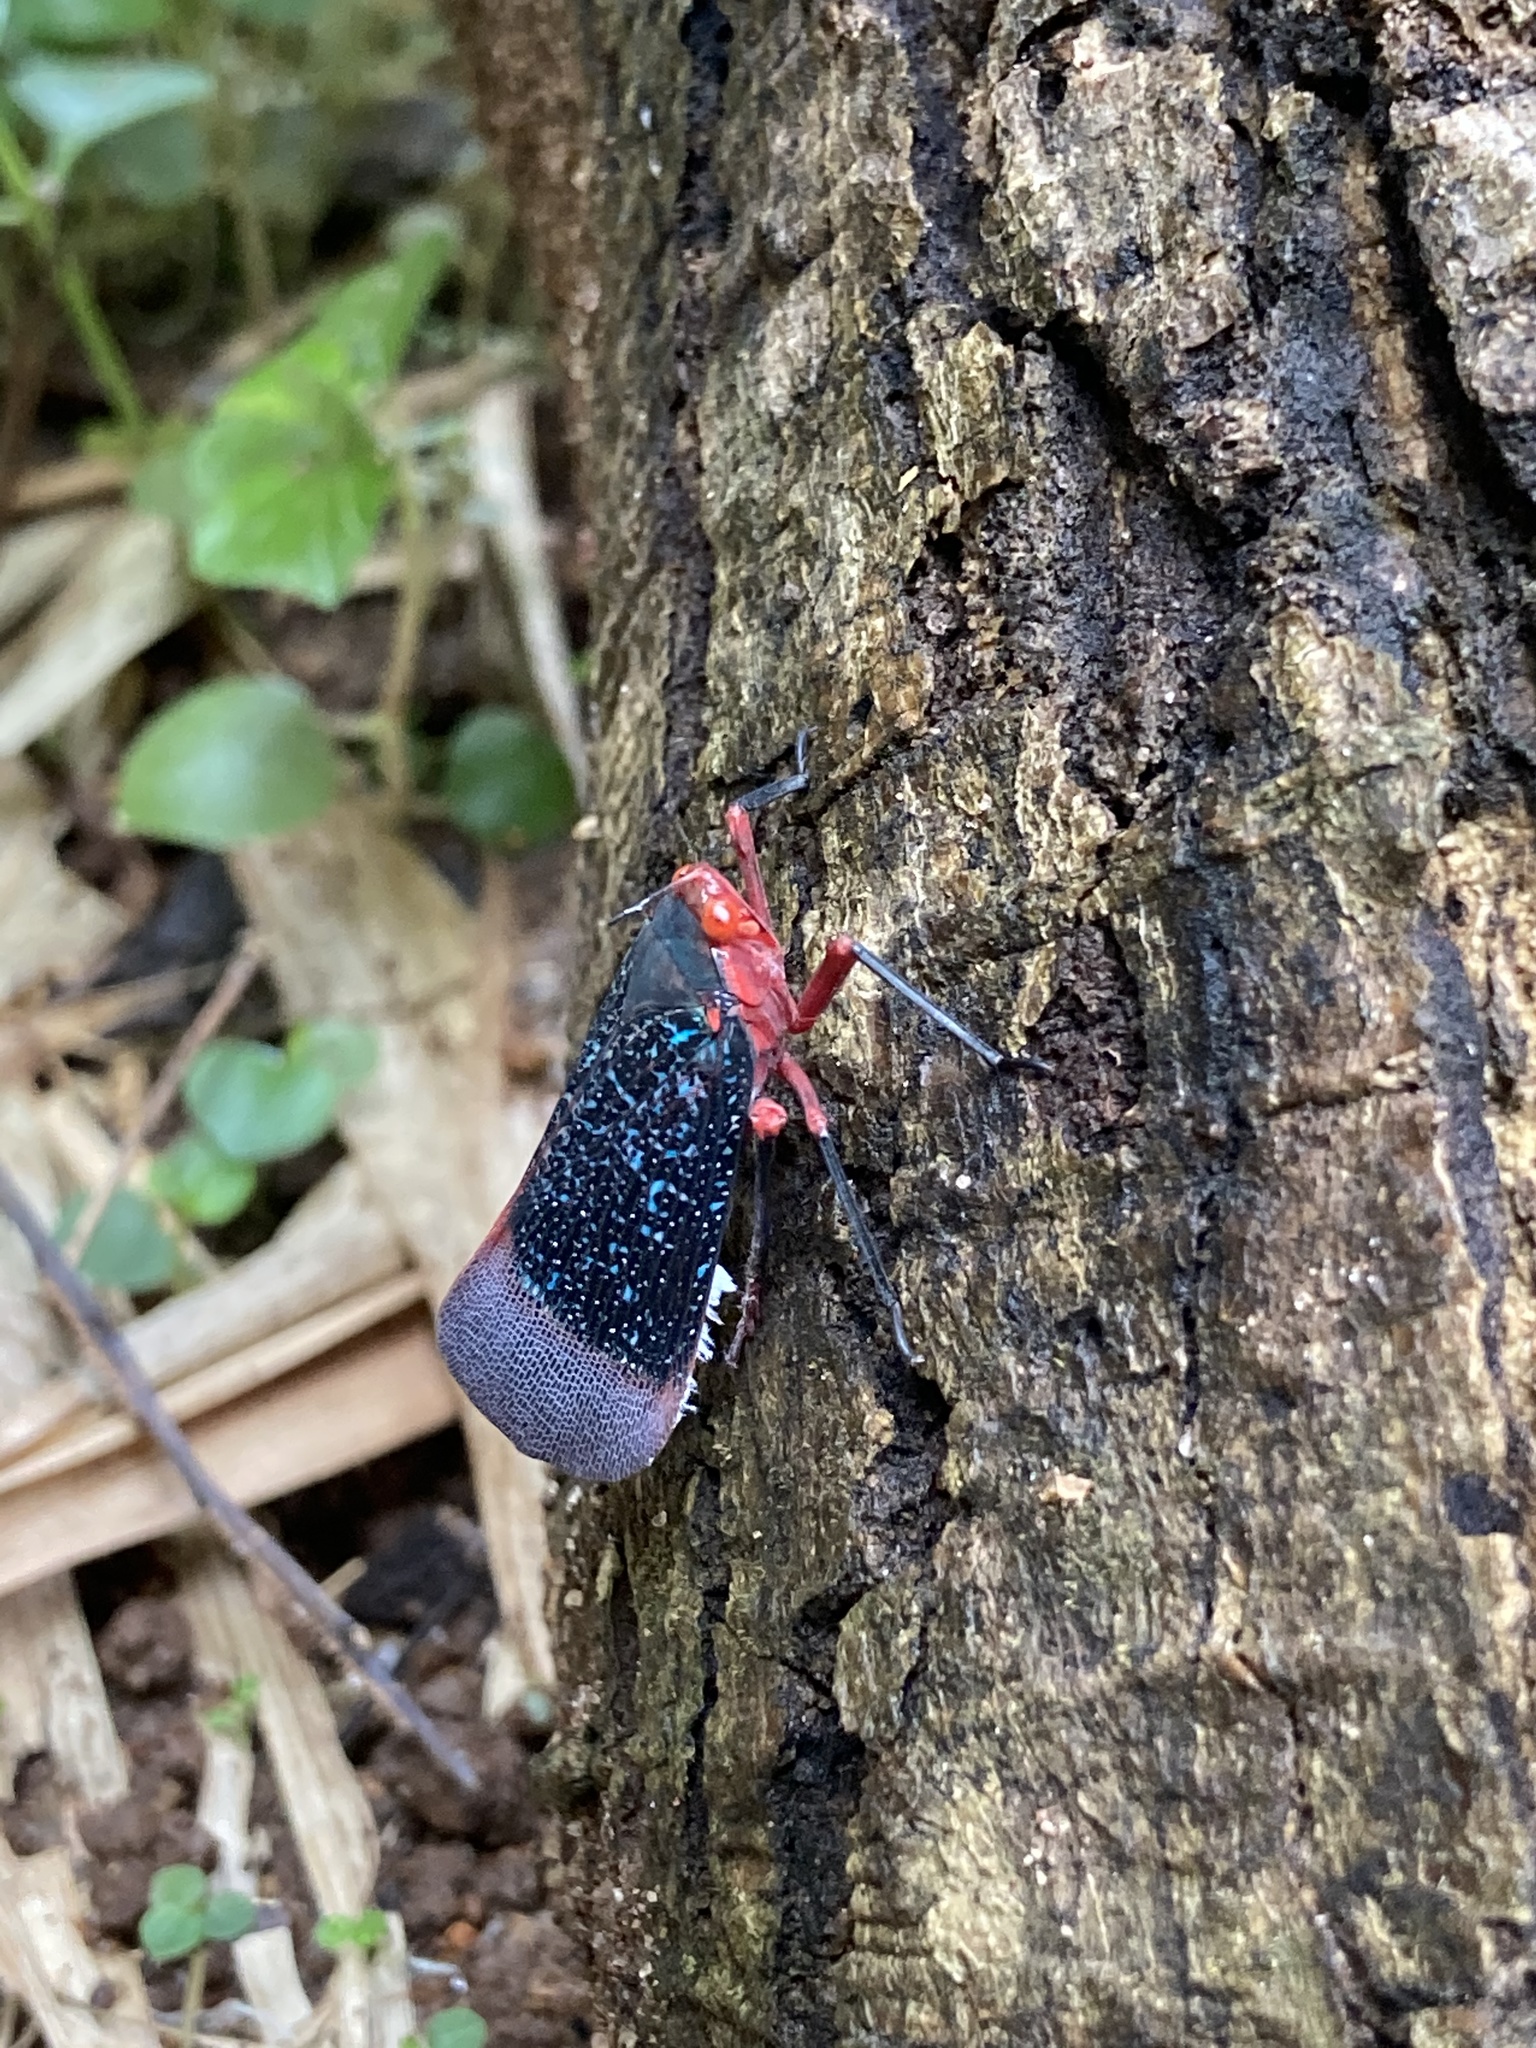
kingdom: Animalia
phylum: Arthropoda
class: Insecta
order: Hemiptera
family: Fulgoridae
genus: Kalidasa
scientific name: Kalidasa lanata
